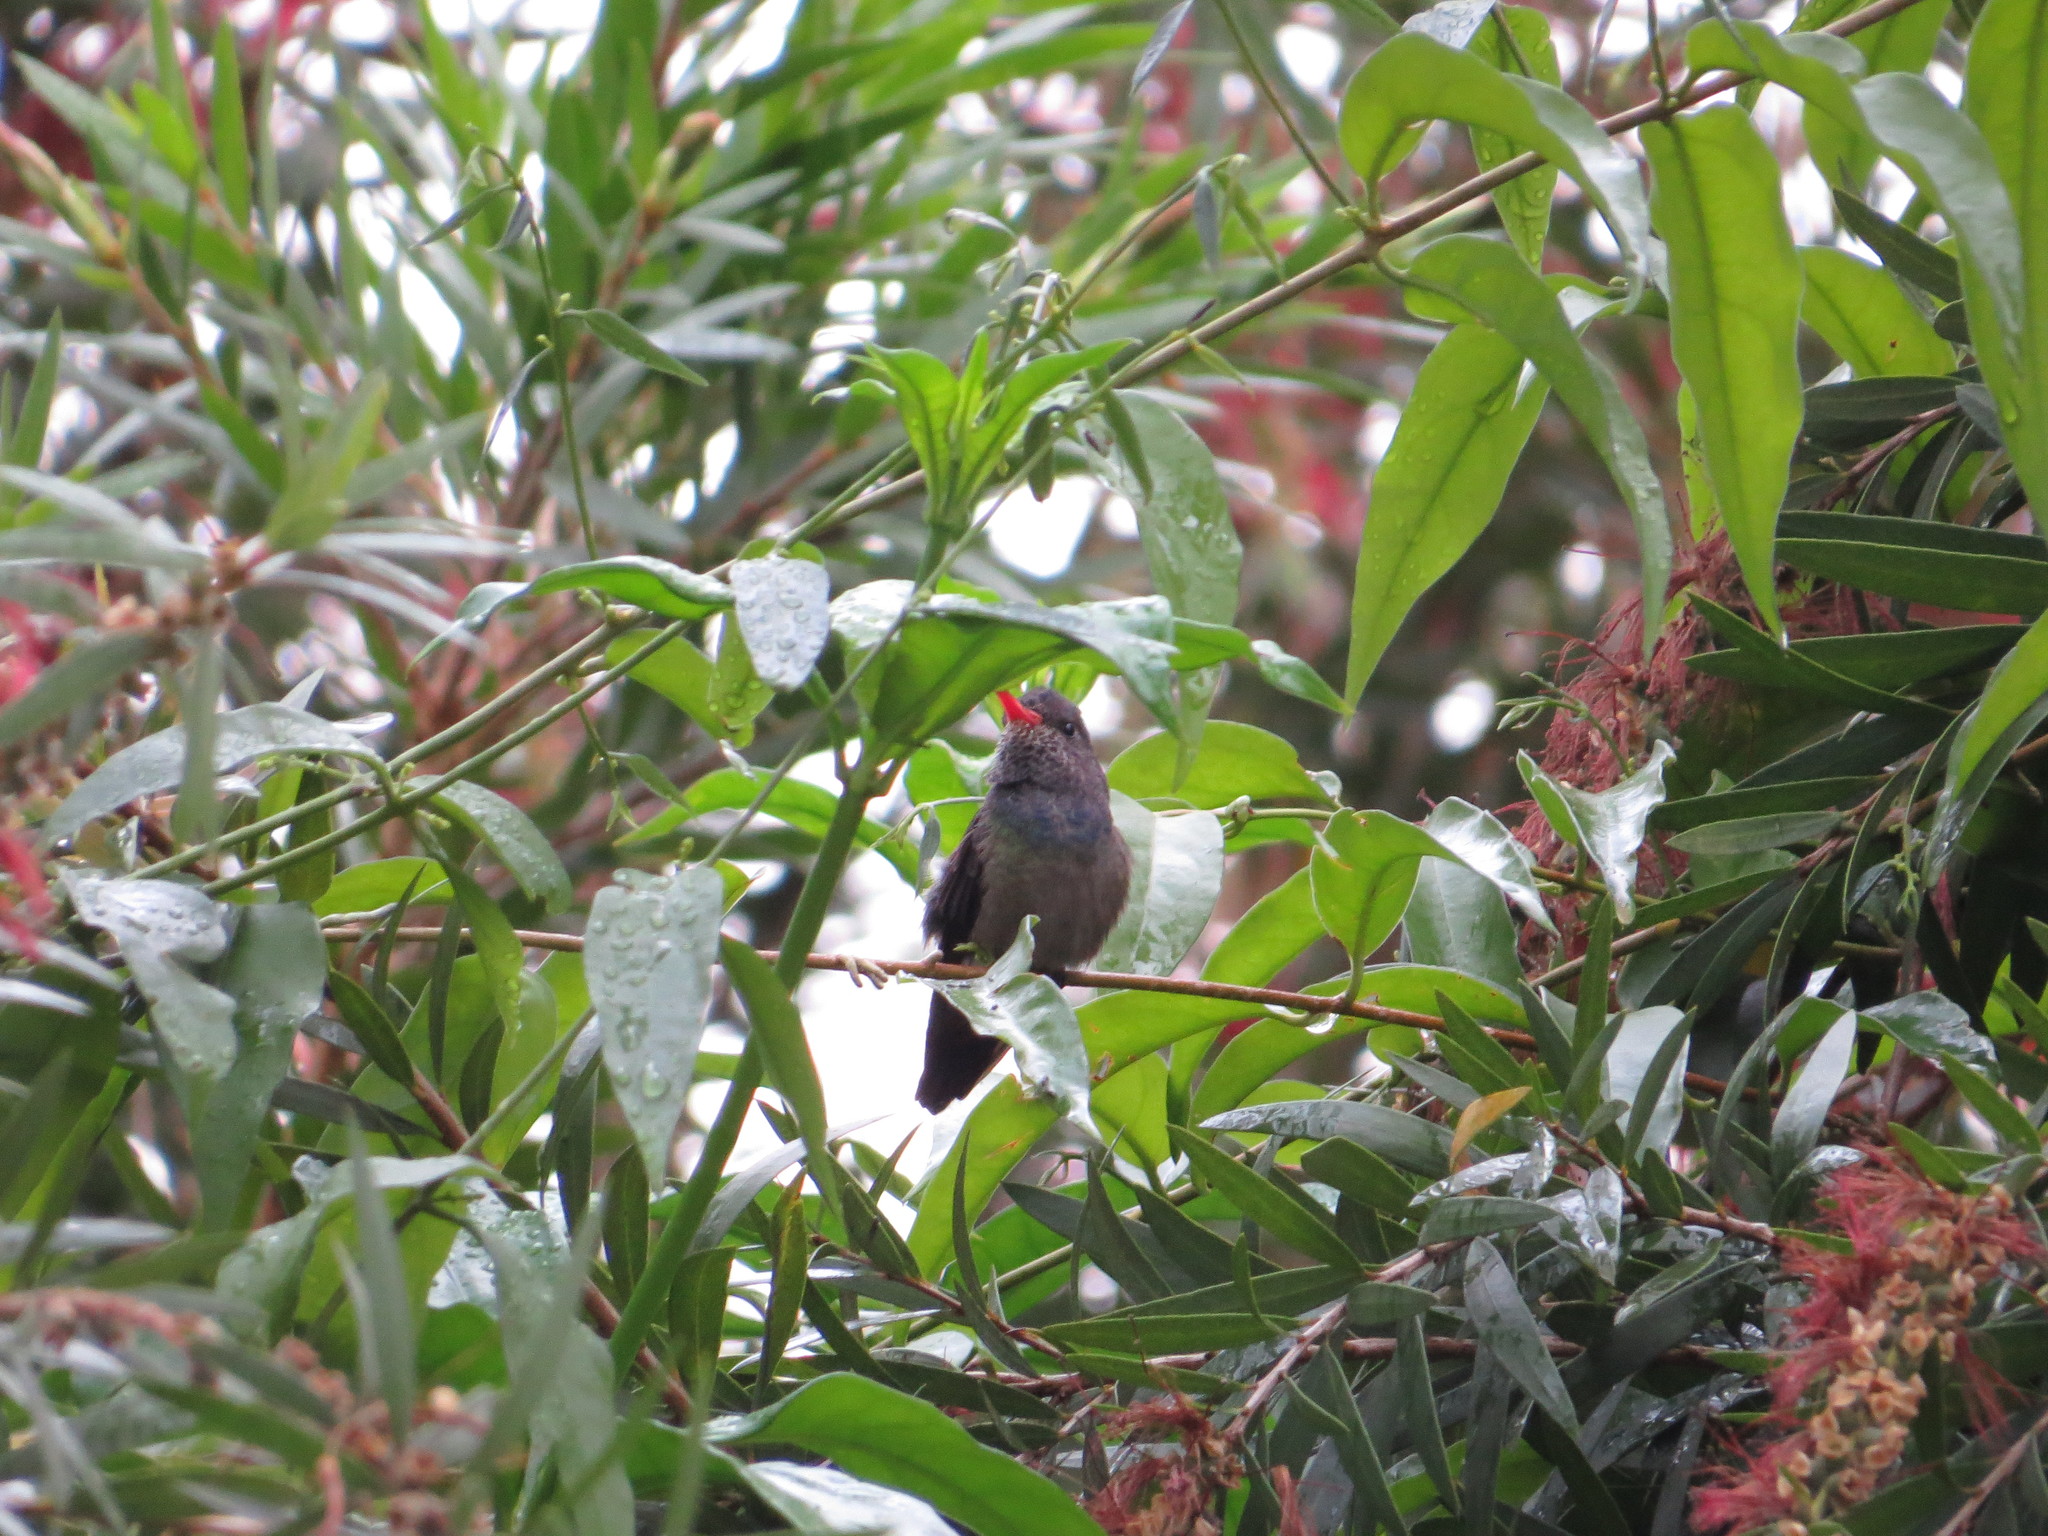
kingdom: Animalia
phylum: Chordata
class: Aves
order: Apodiformes
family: Trochilidae
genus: Chlorestes
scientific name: Chlorestes cyanus
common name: White-chinned sapphire
